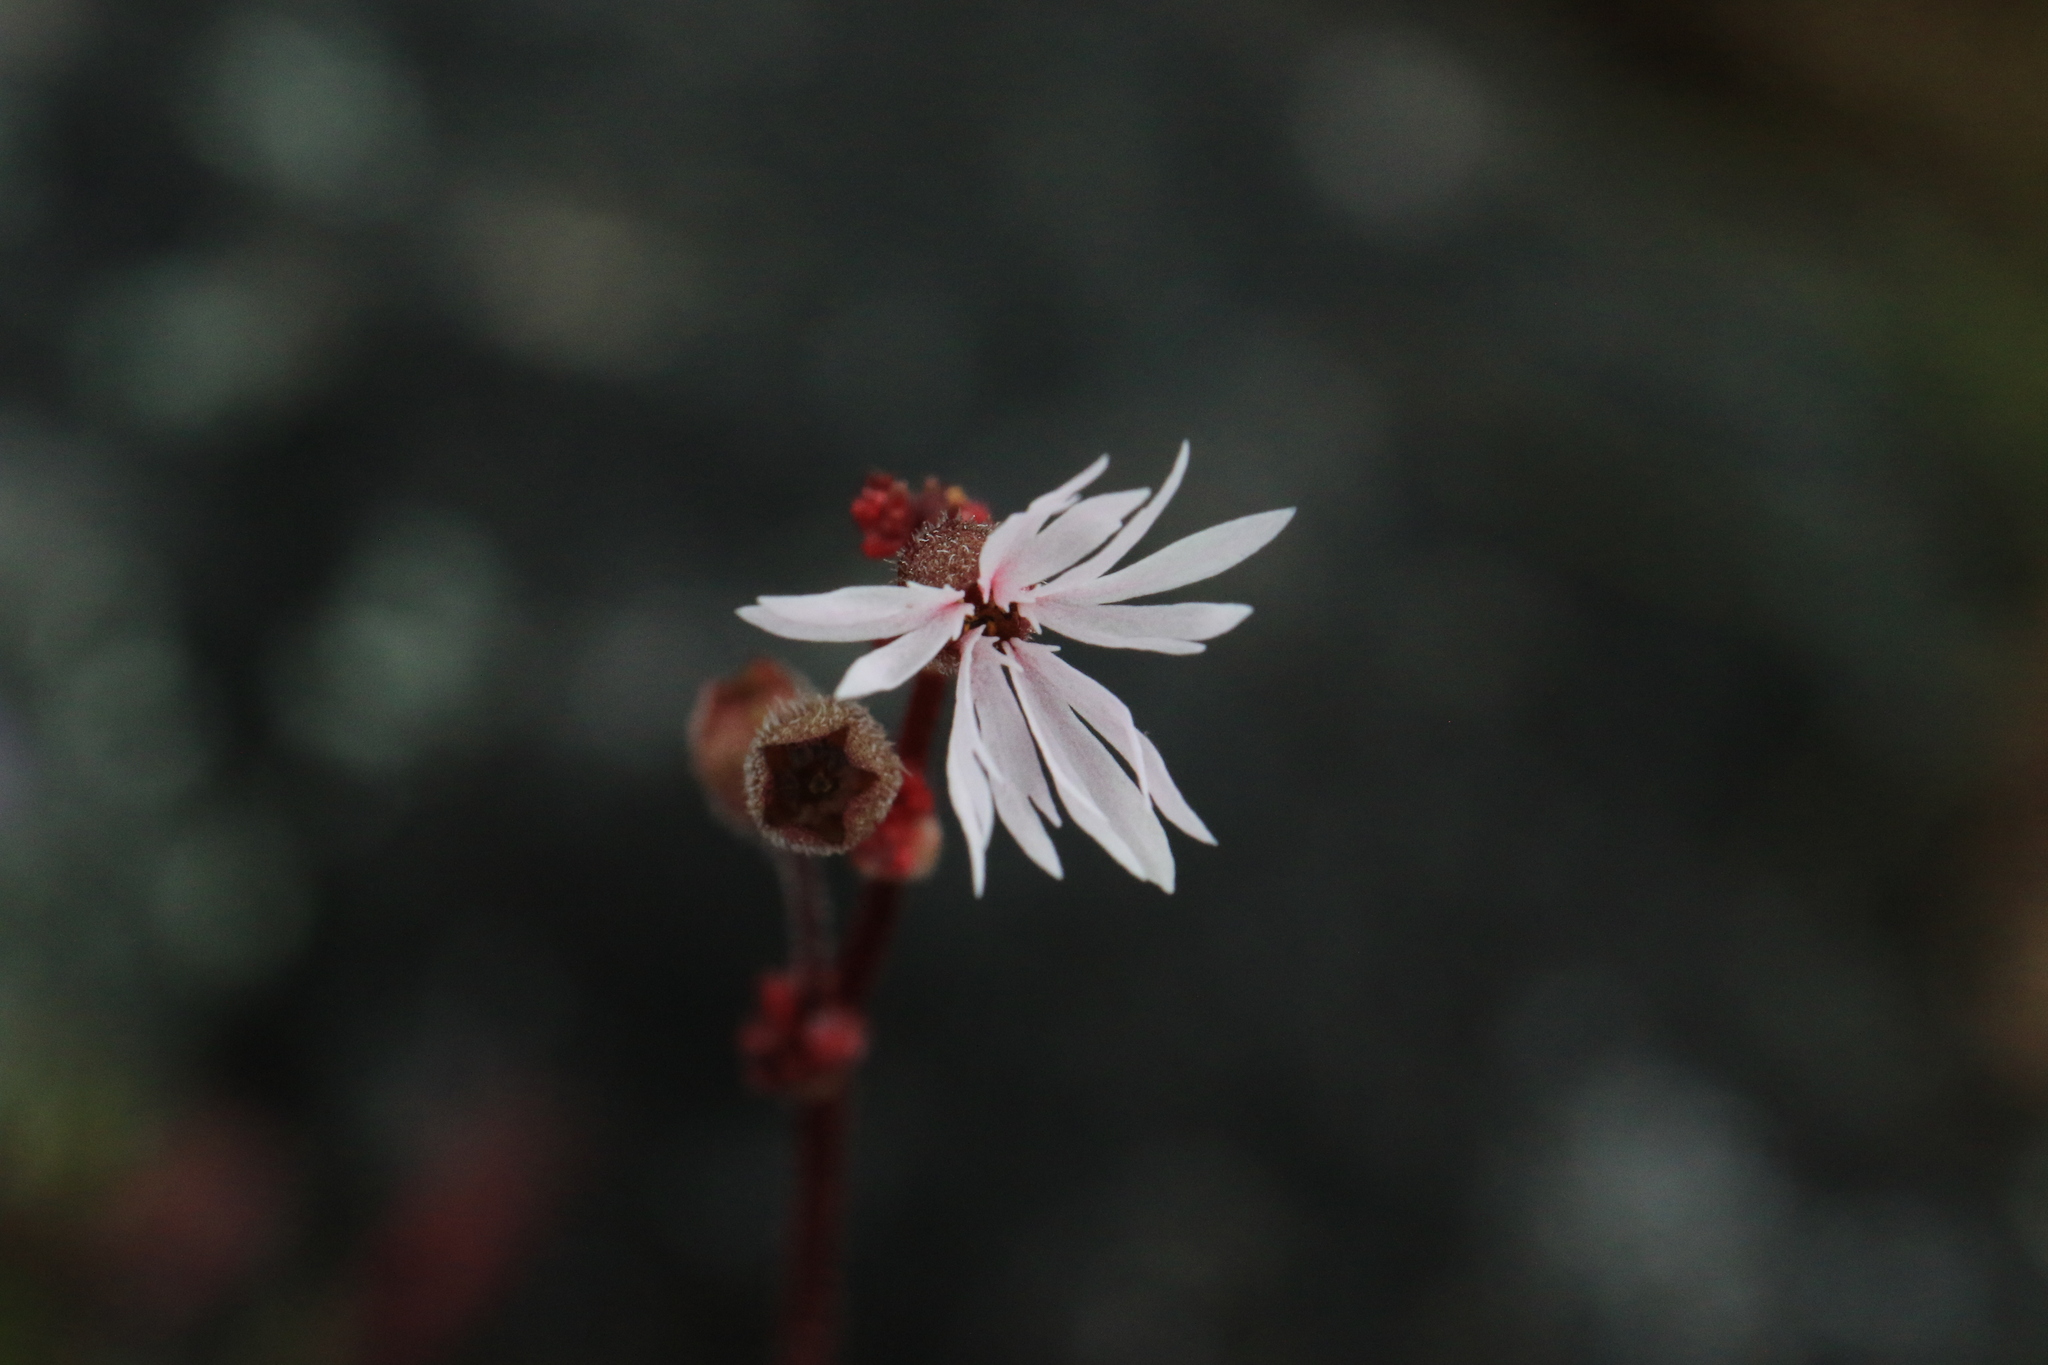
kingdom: Plantae
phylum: Tracheophyta
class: Magnoliopsida
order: Saxifragales
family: Saxifragaceae
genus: Lithophragma
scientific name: Lithophragma glabrum
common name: Bulbous prairie-star
